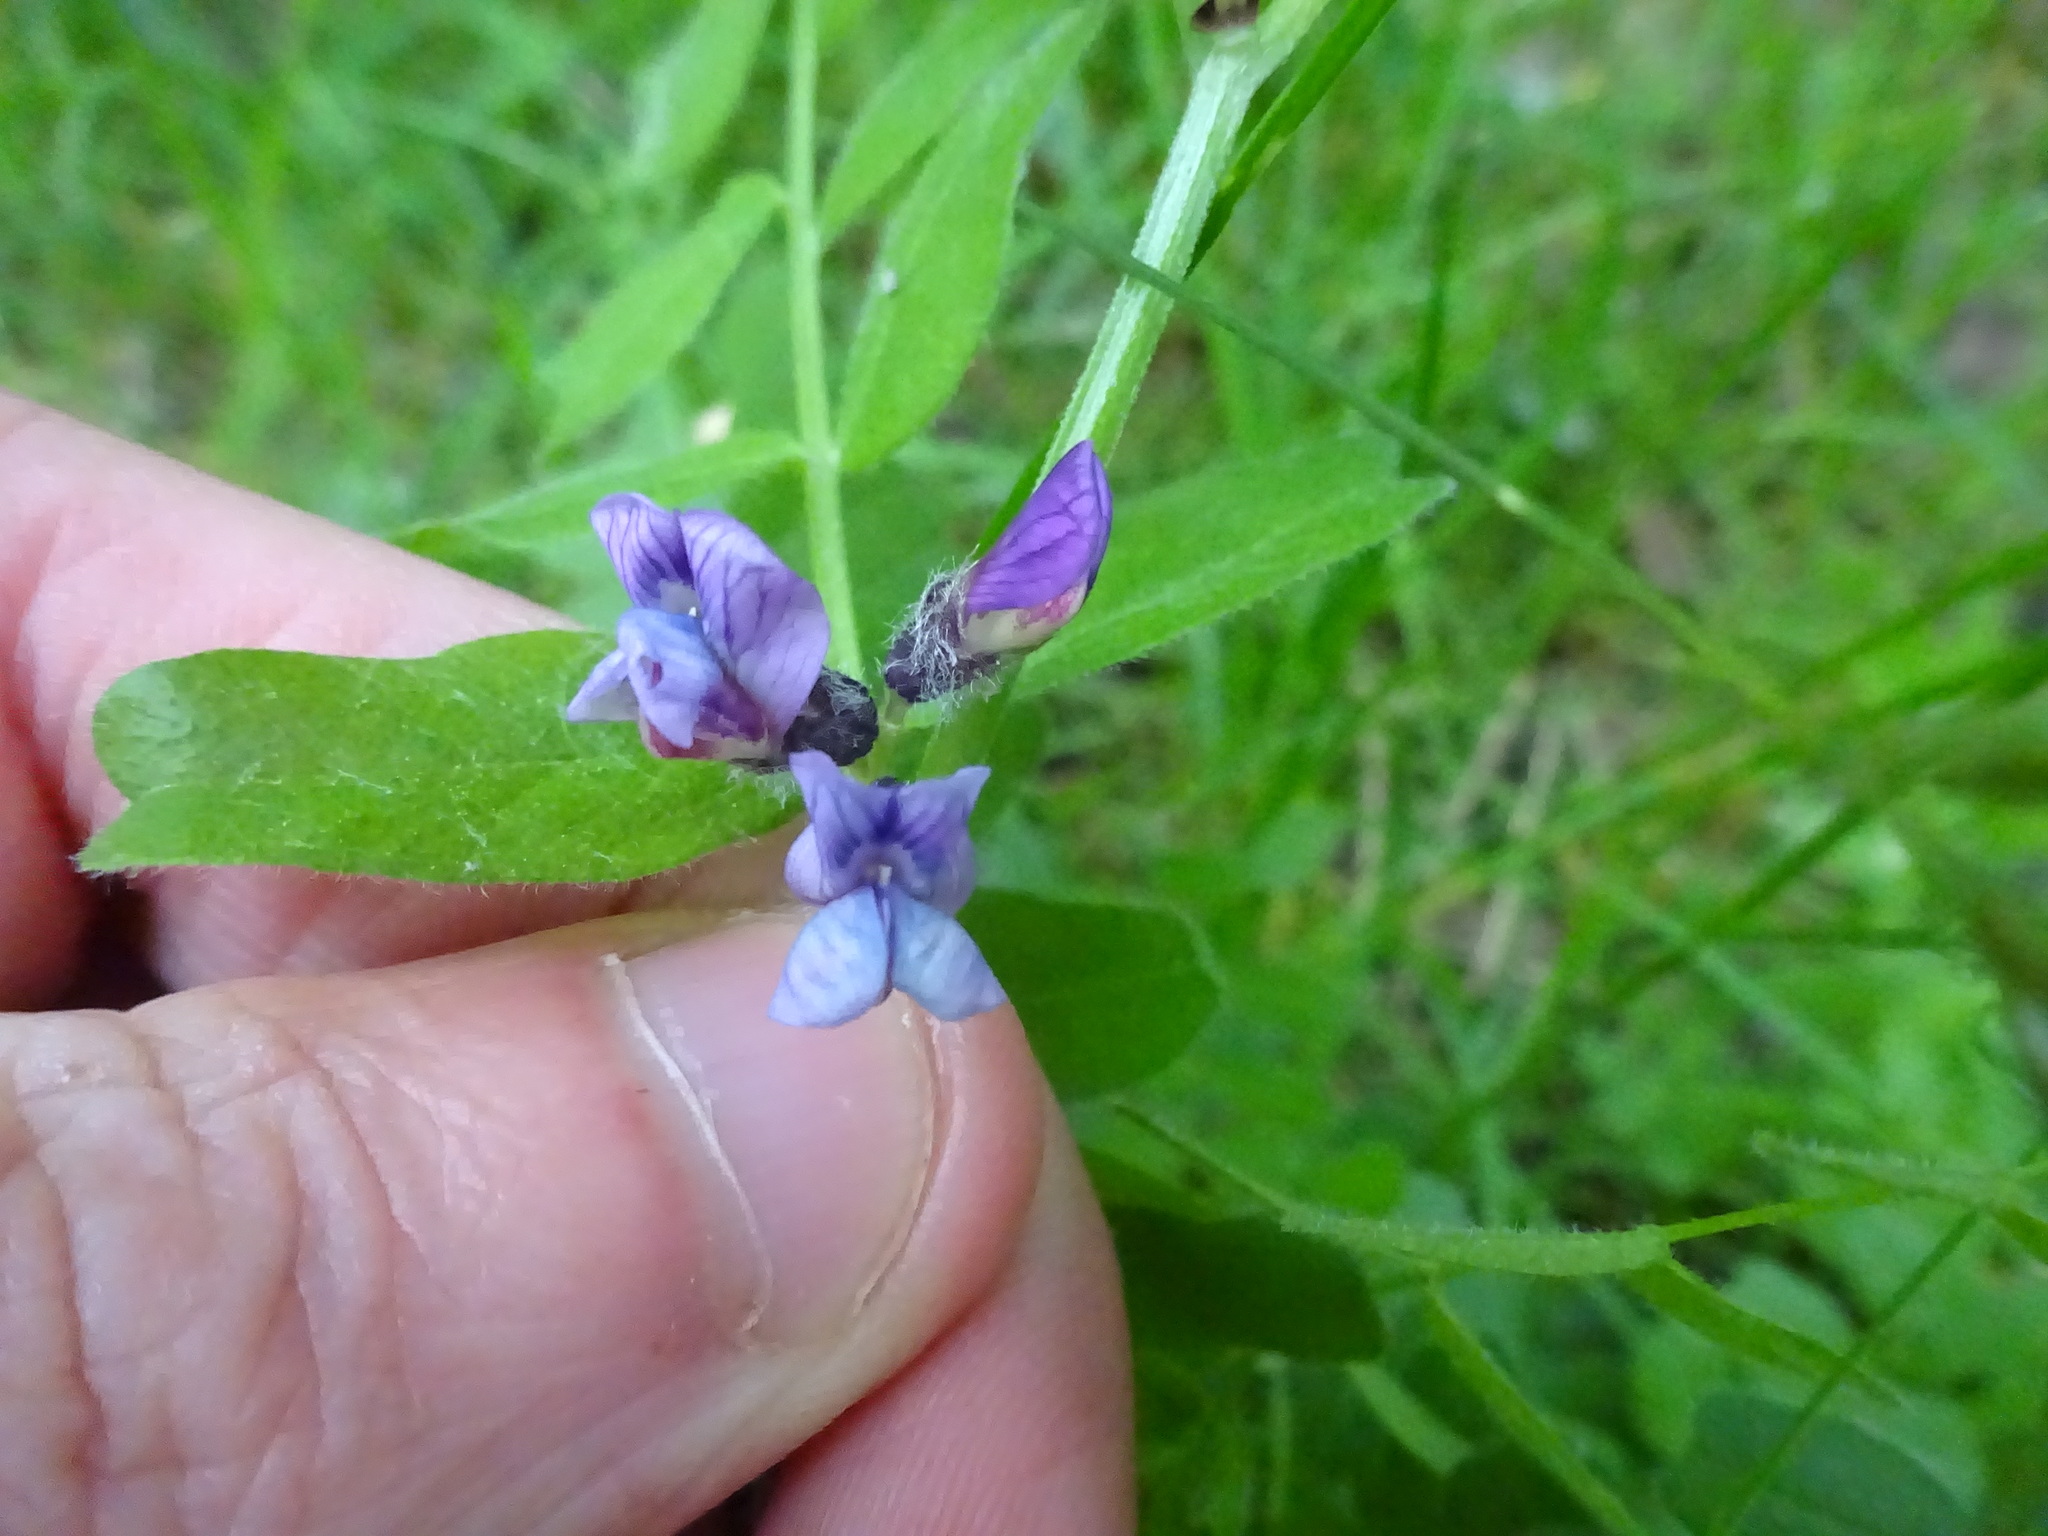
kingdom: Plantae
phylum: Tracheophyta
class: Magnoliopsida
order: Fabales
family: Fabaceae
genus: Vicia
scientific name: Vicia sepium
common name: Bush vetch
